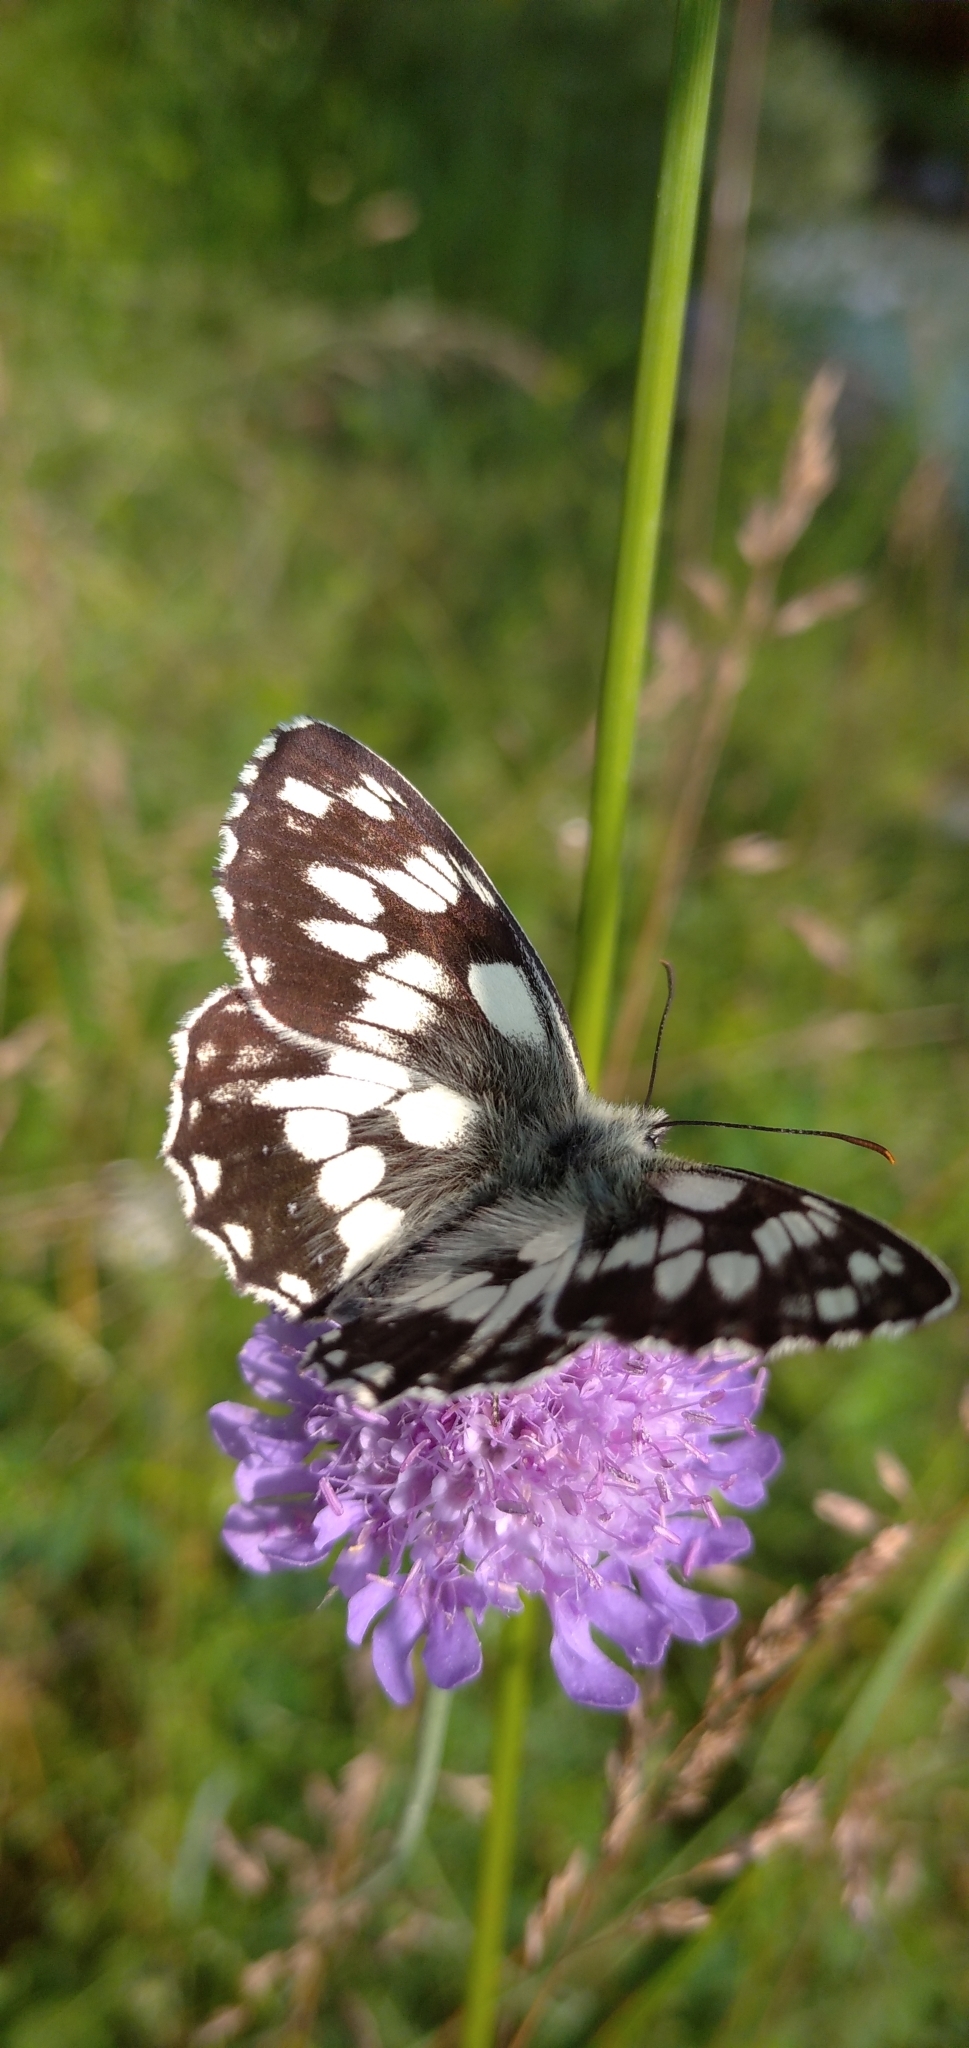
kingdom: Animalia
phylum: Arthropoda
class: Insecta
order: Lepidoptera
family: Nymphalidae
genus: Melanargia
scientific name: Melanargia galathea
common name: Marbled white
